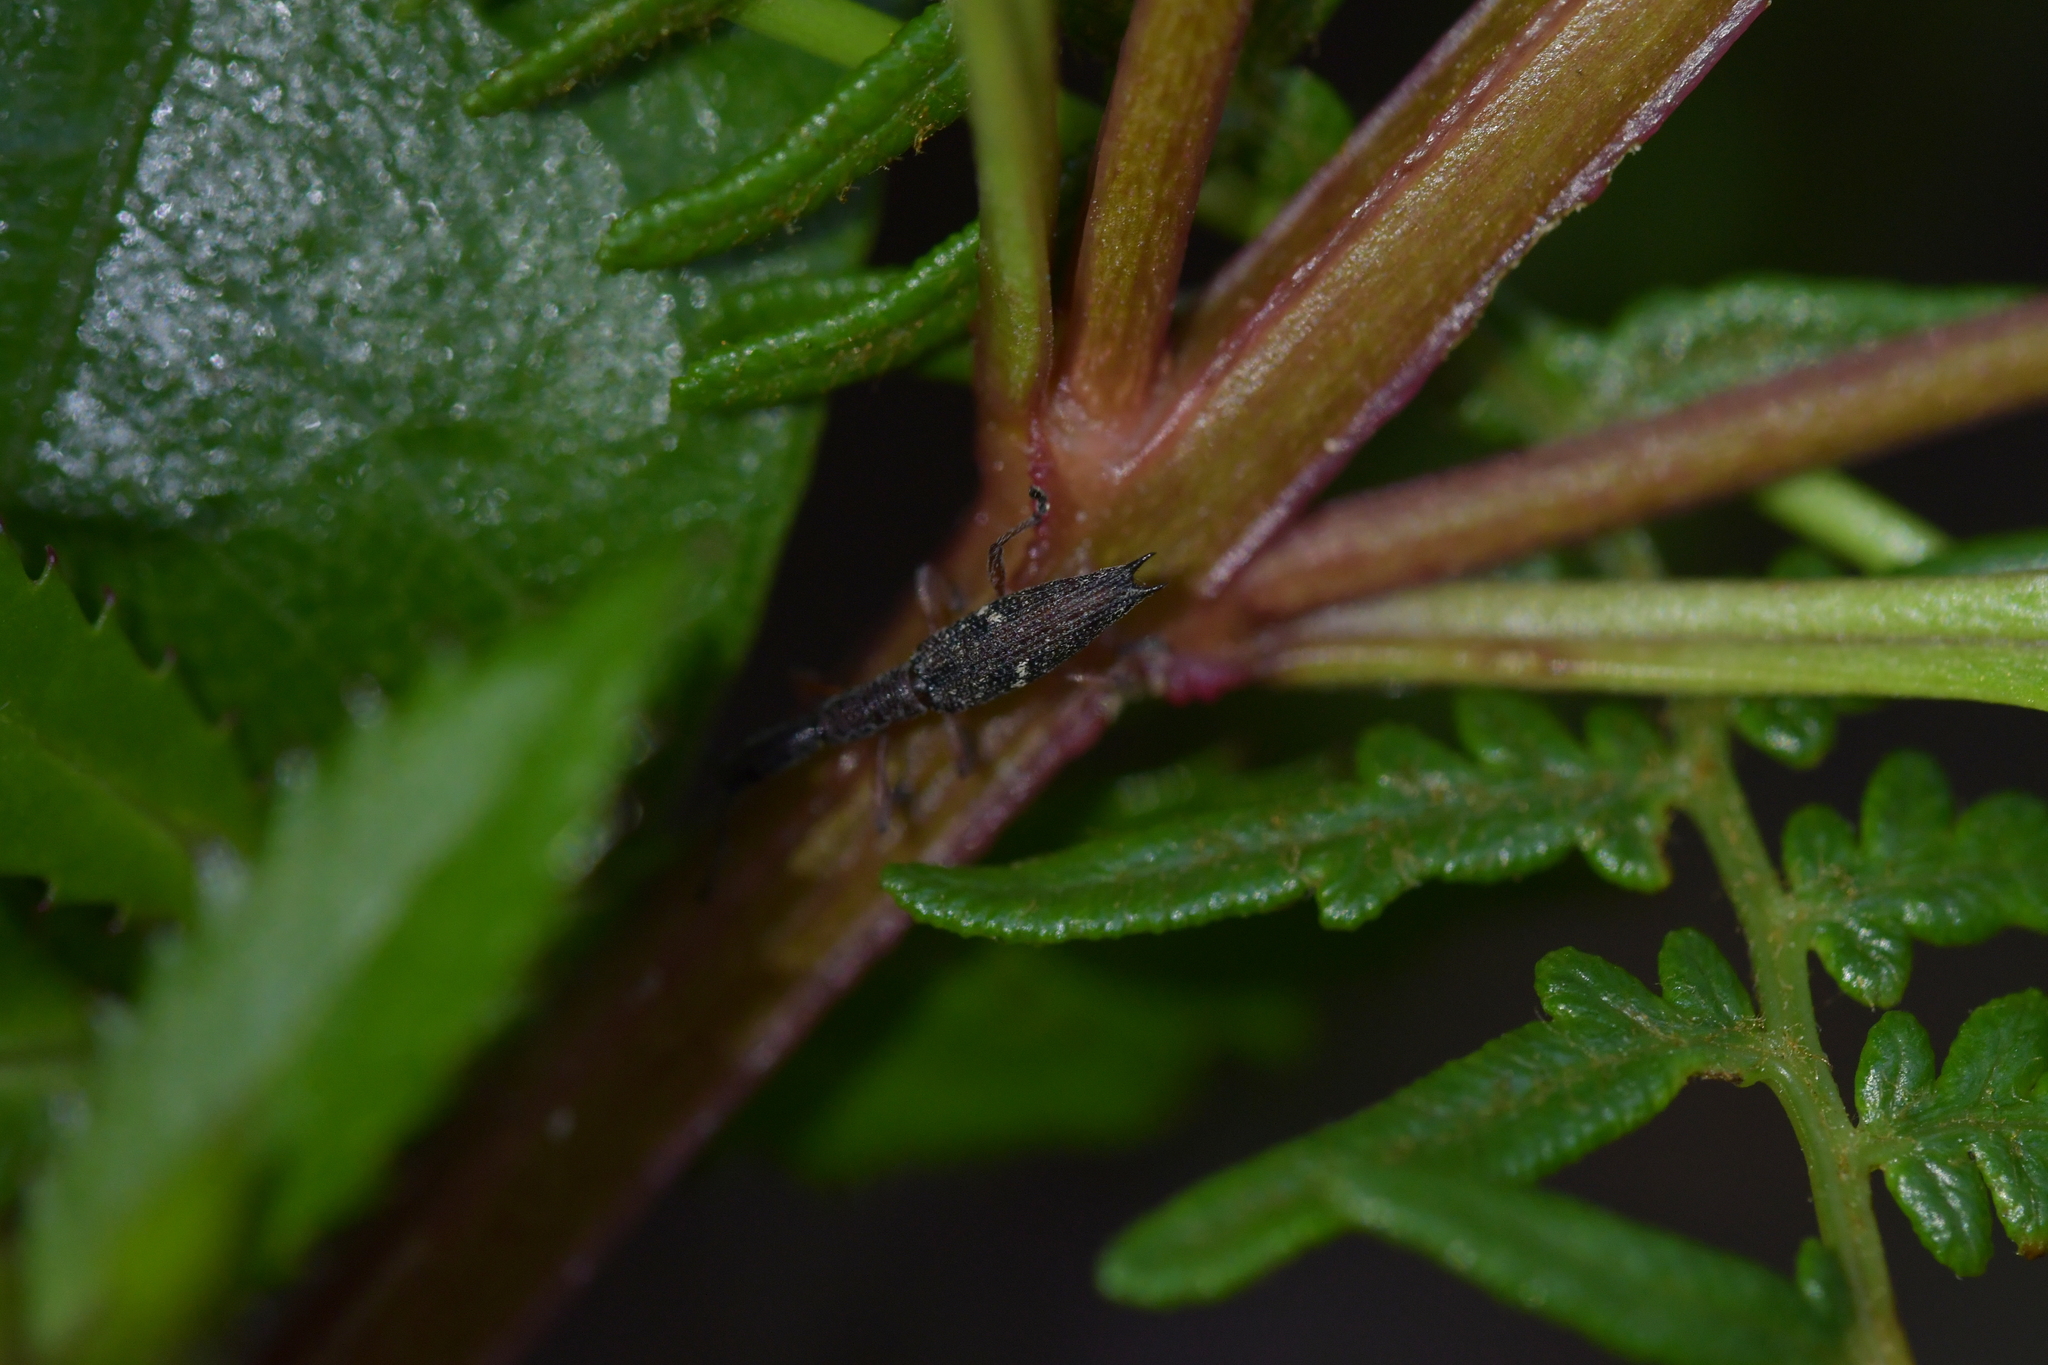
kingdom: Animalia
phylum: Arthropoda
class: Insecta
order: Coleoptera
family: Curculionidae
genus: Rhadinosomus
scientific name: Rhadinosomus acuminatus
